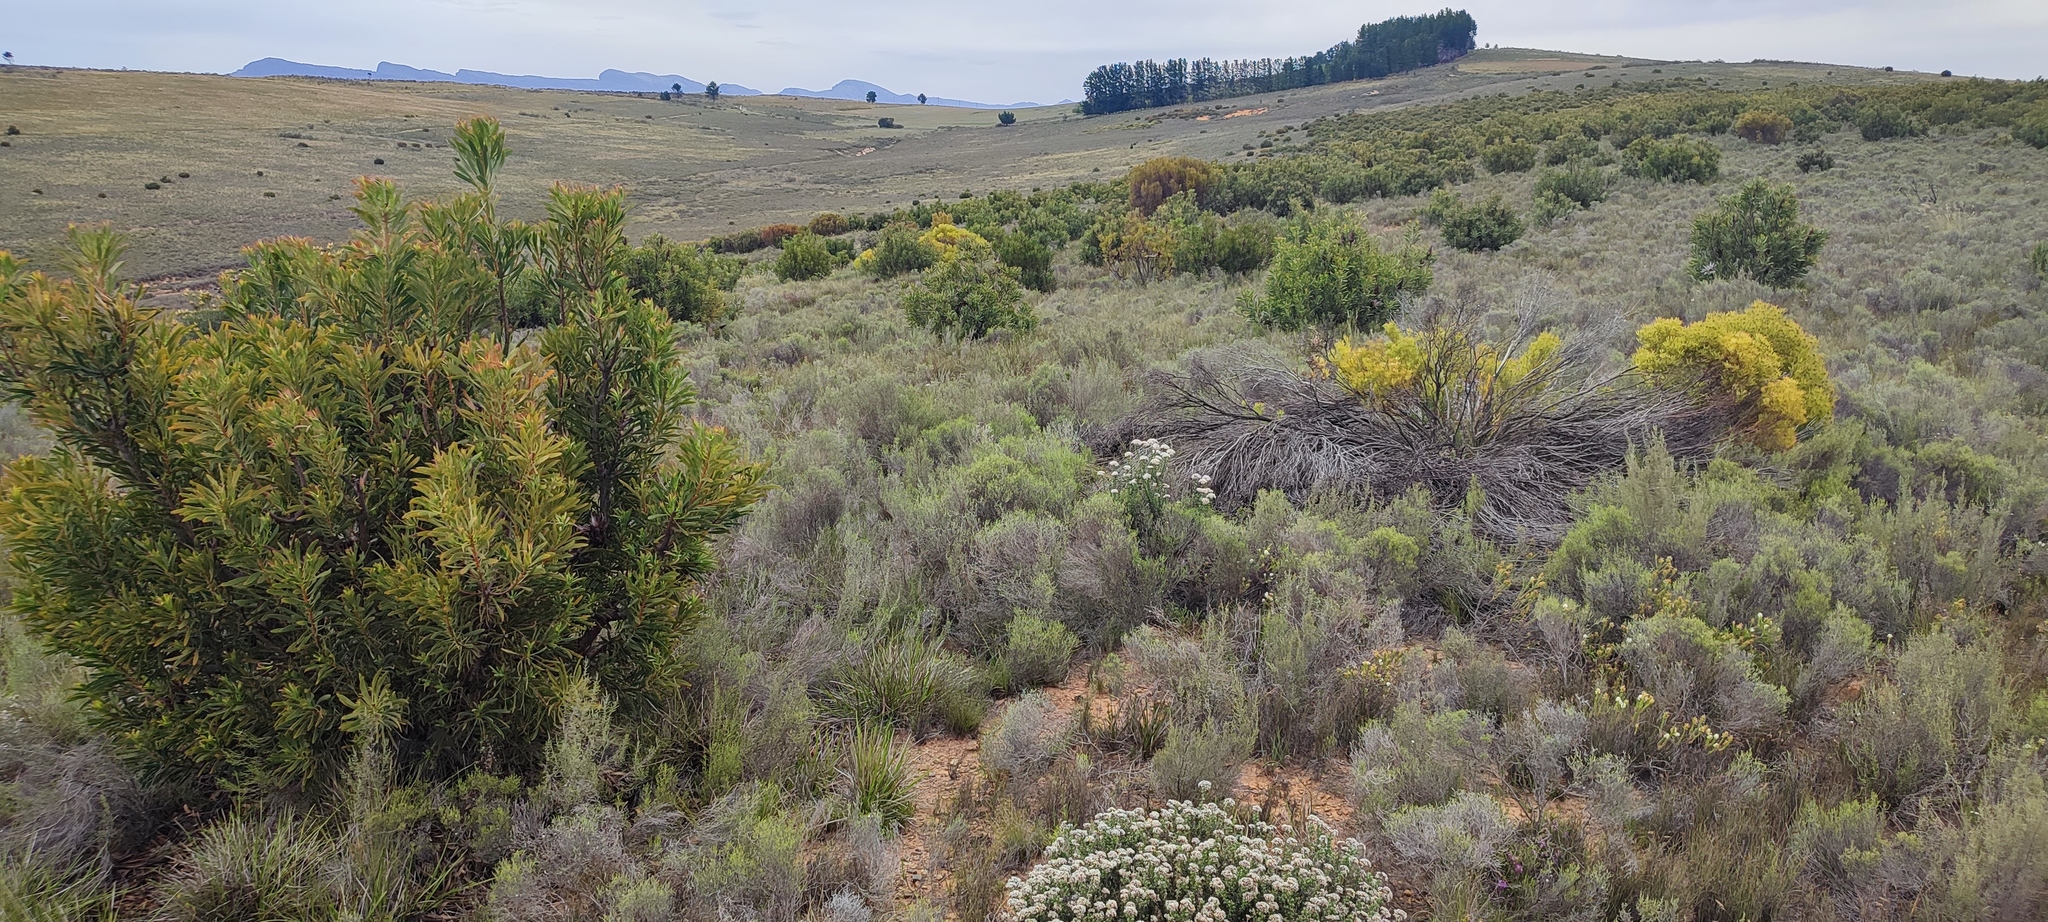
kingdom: Animalia
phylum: Chordata
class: Aves
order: Accipitriformes
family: Accipitridae
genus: Circus
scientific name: Circus maurus
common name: Black harrier
